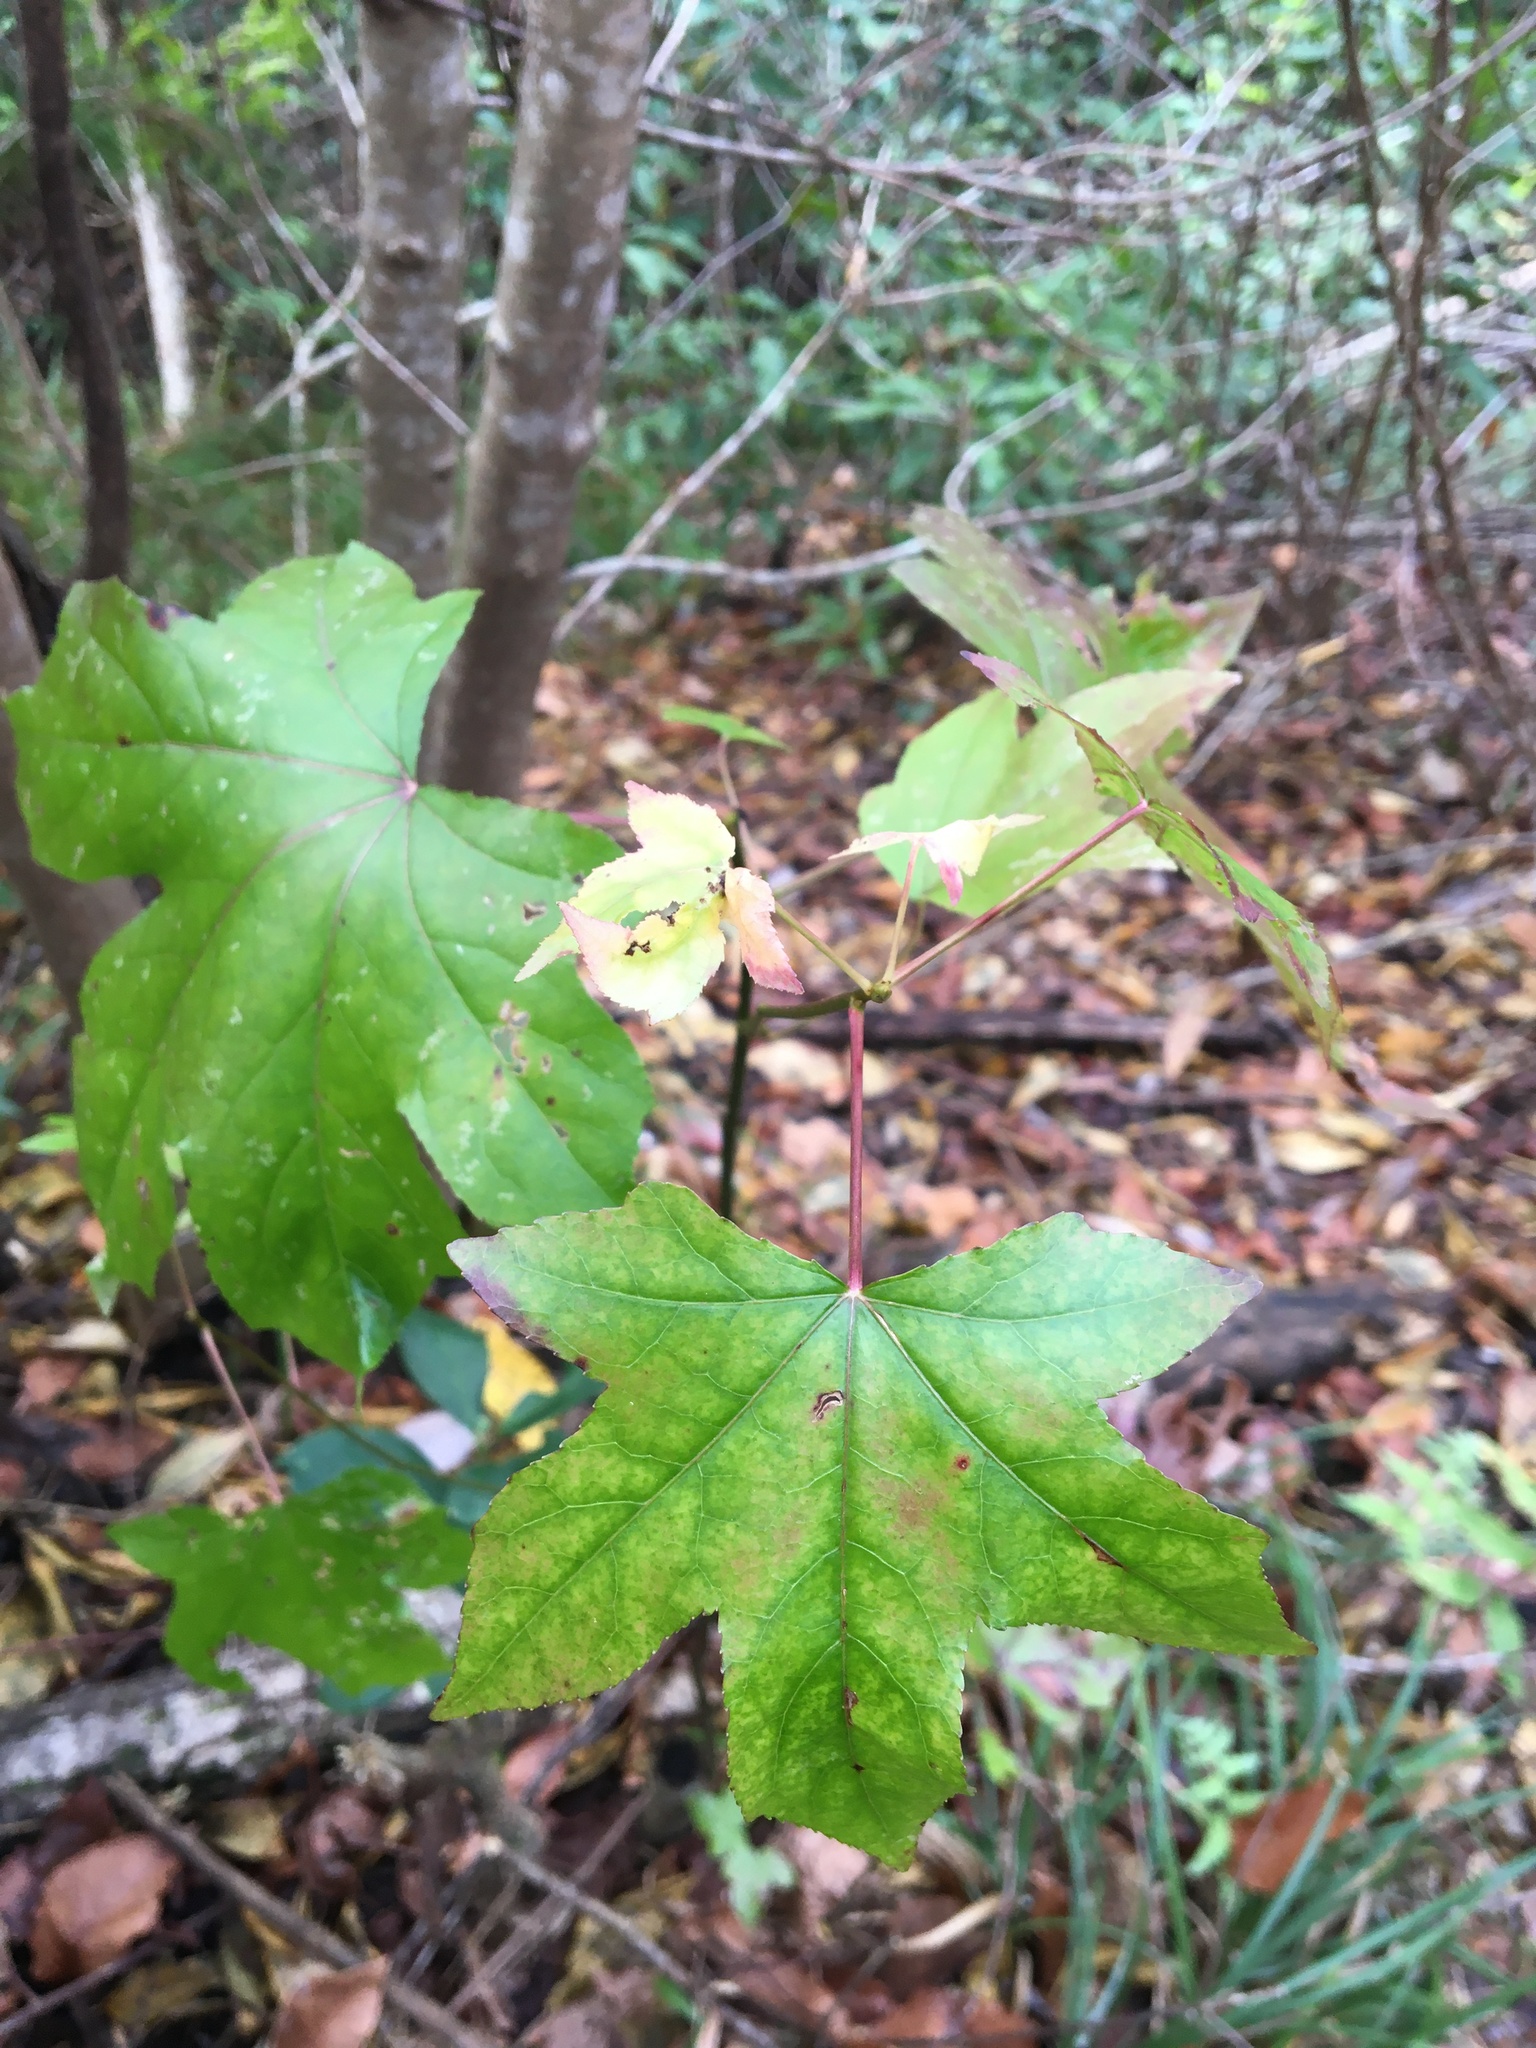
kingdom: Plantae
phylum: Tracheophyta
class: Magnoliopsida
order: Saxifragales
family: Altingiaceae
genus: Liquidambar
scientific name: Liquidambar styraciflua
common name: Sweet gum
